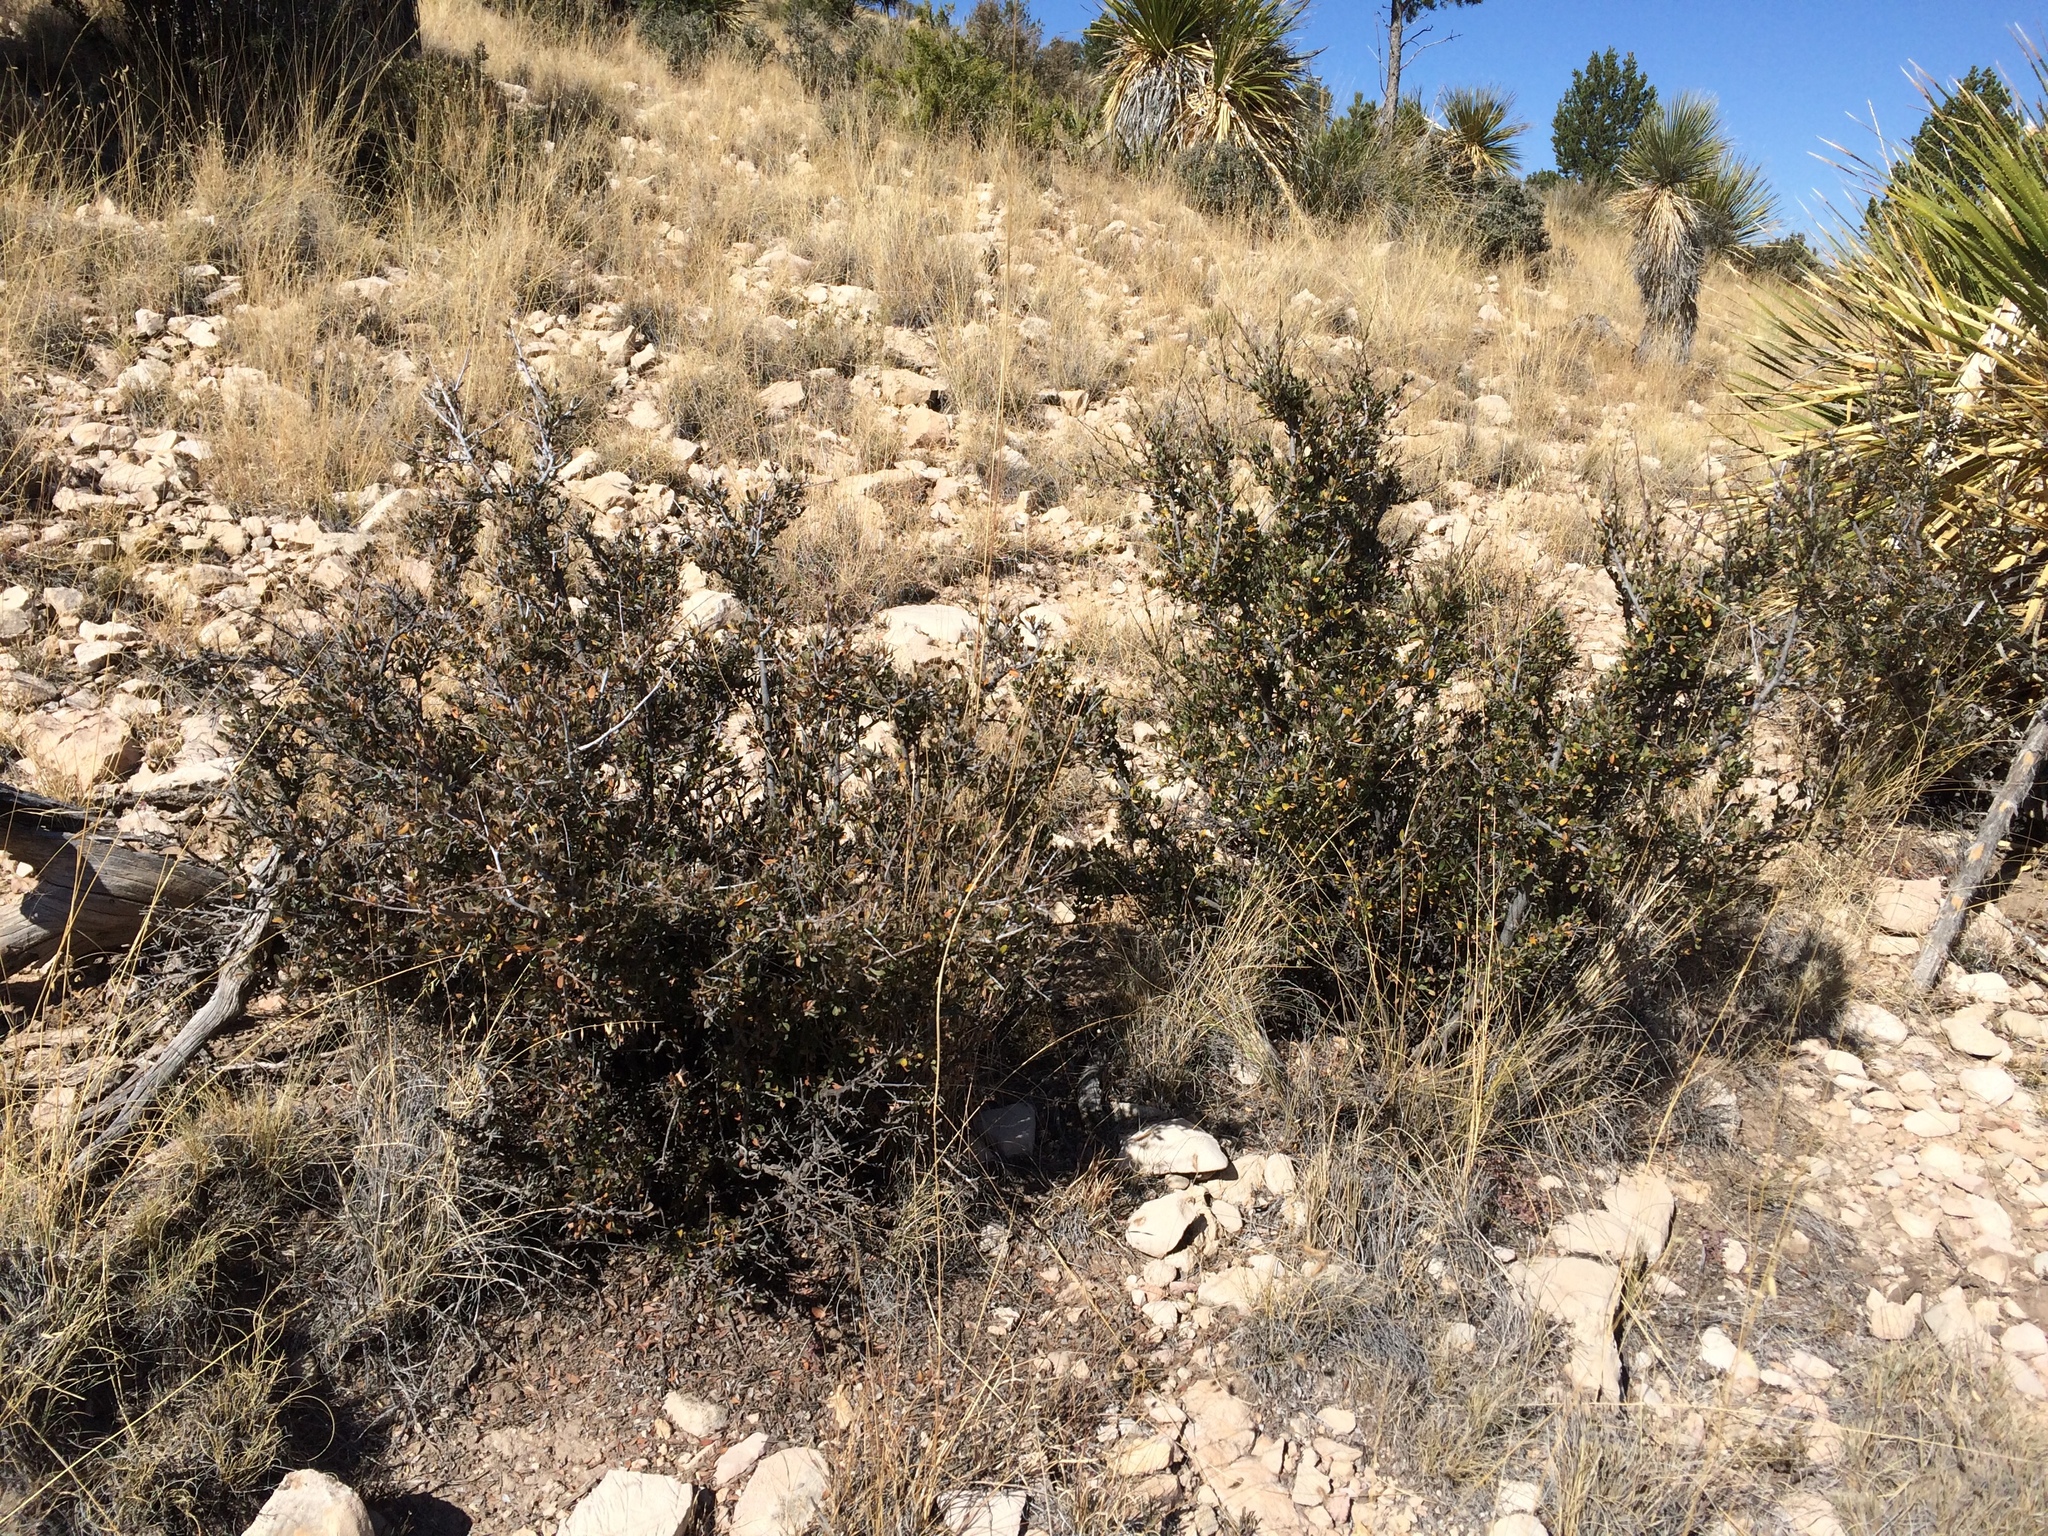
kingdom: Plantae
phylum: Tracheophyta
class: Magnoliopsida
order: Rosales
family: Rosaceae
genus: Cercocarpus
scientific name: Cercocarpus breviflorus
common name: Wright's mountain-mahogany
